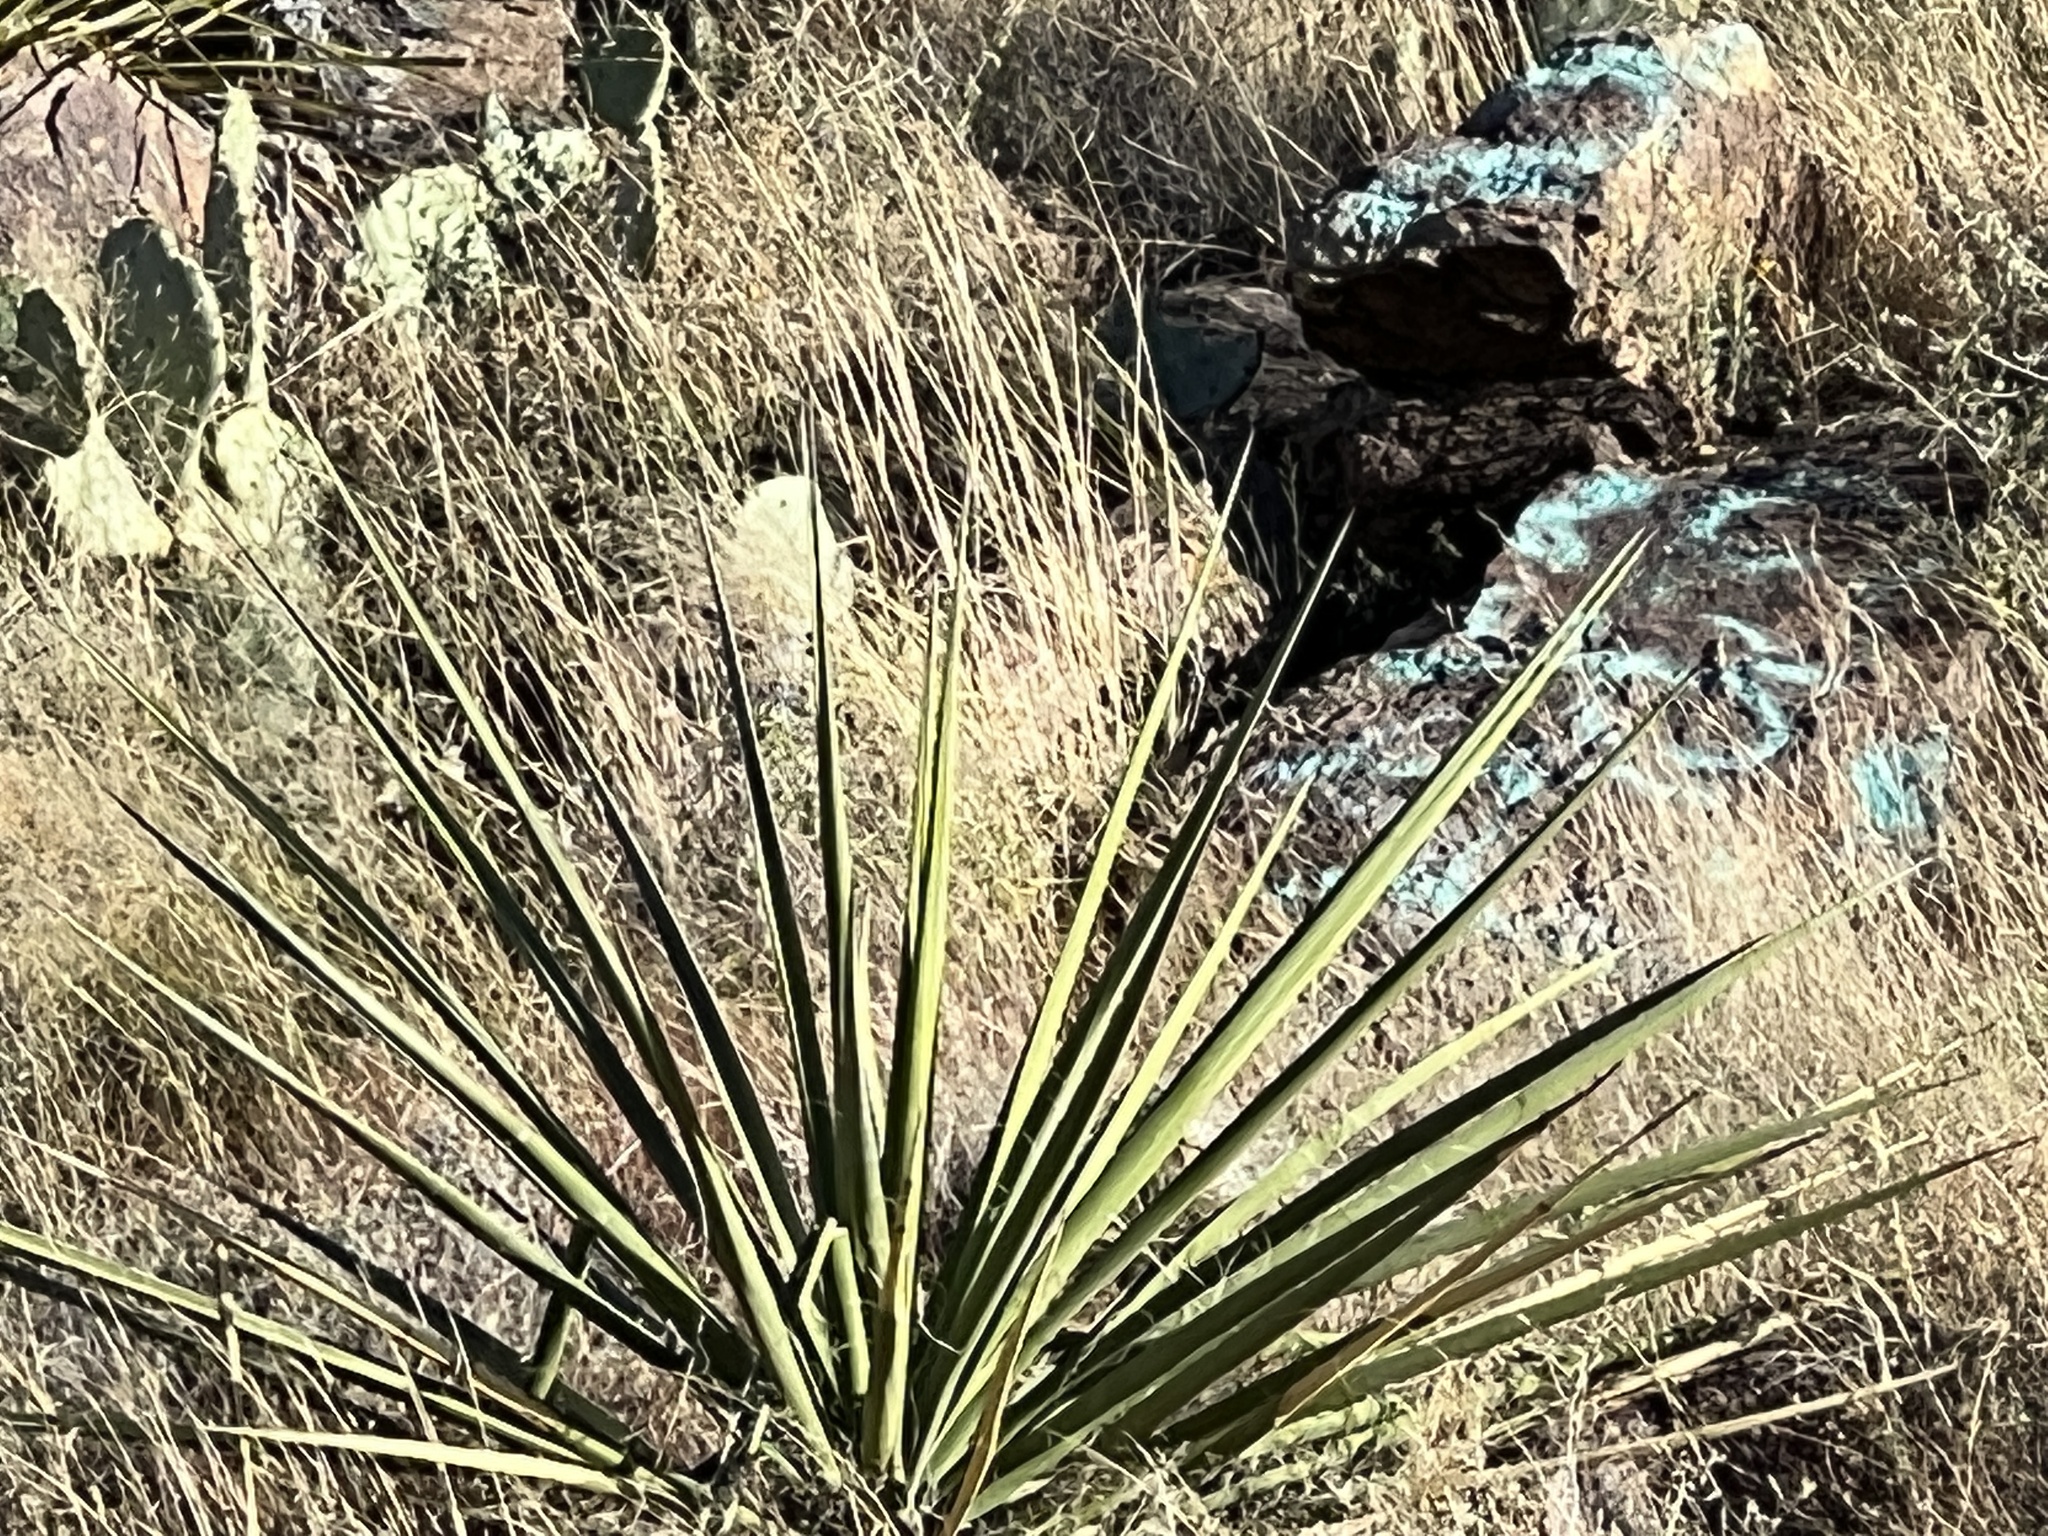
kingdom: Plantae
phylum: Tracheophyta
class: Liliopsida
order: Asparagales
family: Asparagaceae
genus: Yucca
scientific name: Yucca treculiana
